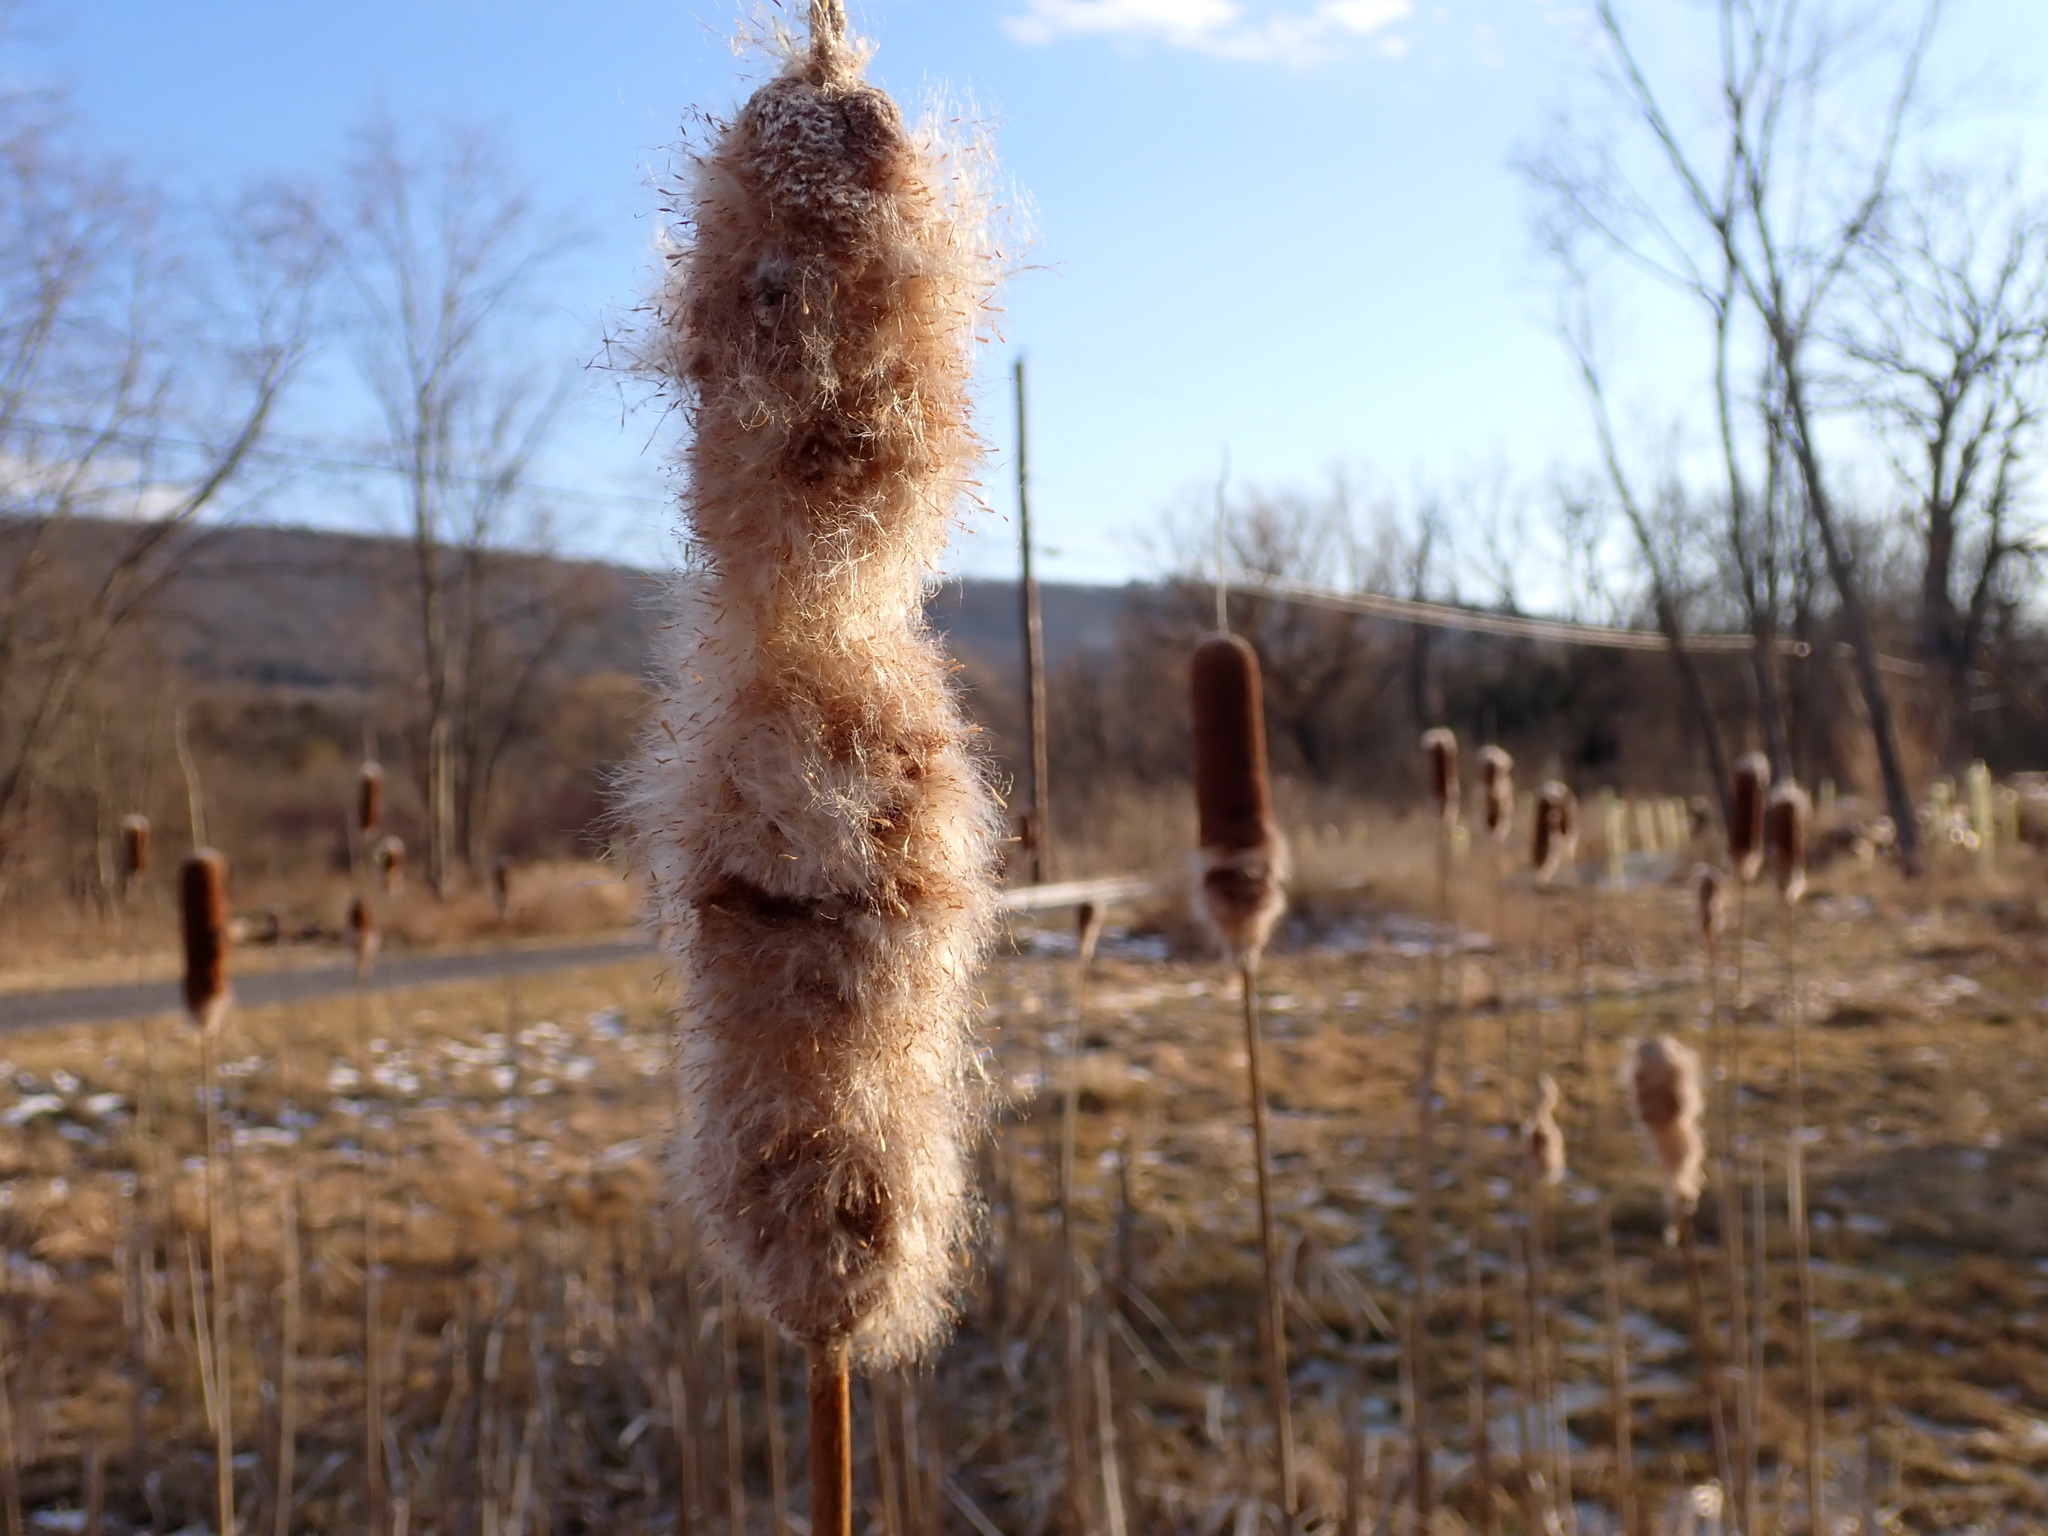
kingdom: Plantae
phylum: Tracheophyta
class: Liliopsida
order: Poales
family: Typhaceae
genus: Typha
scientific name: Typha
